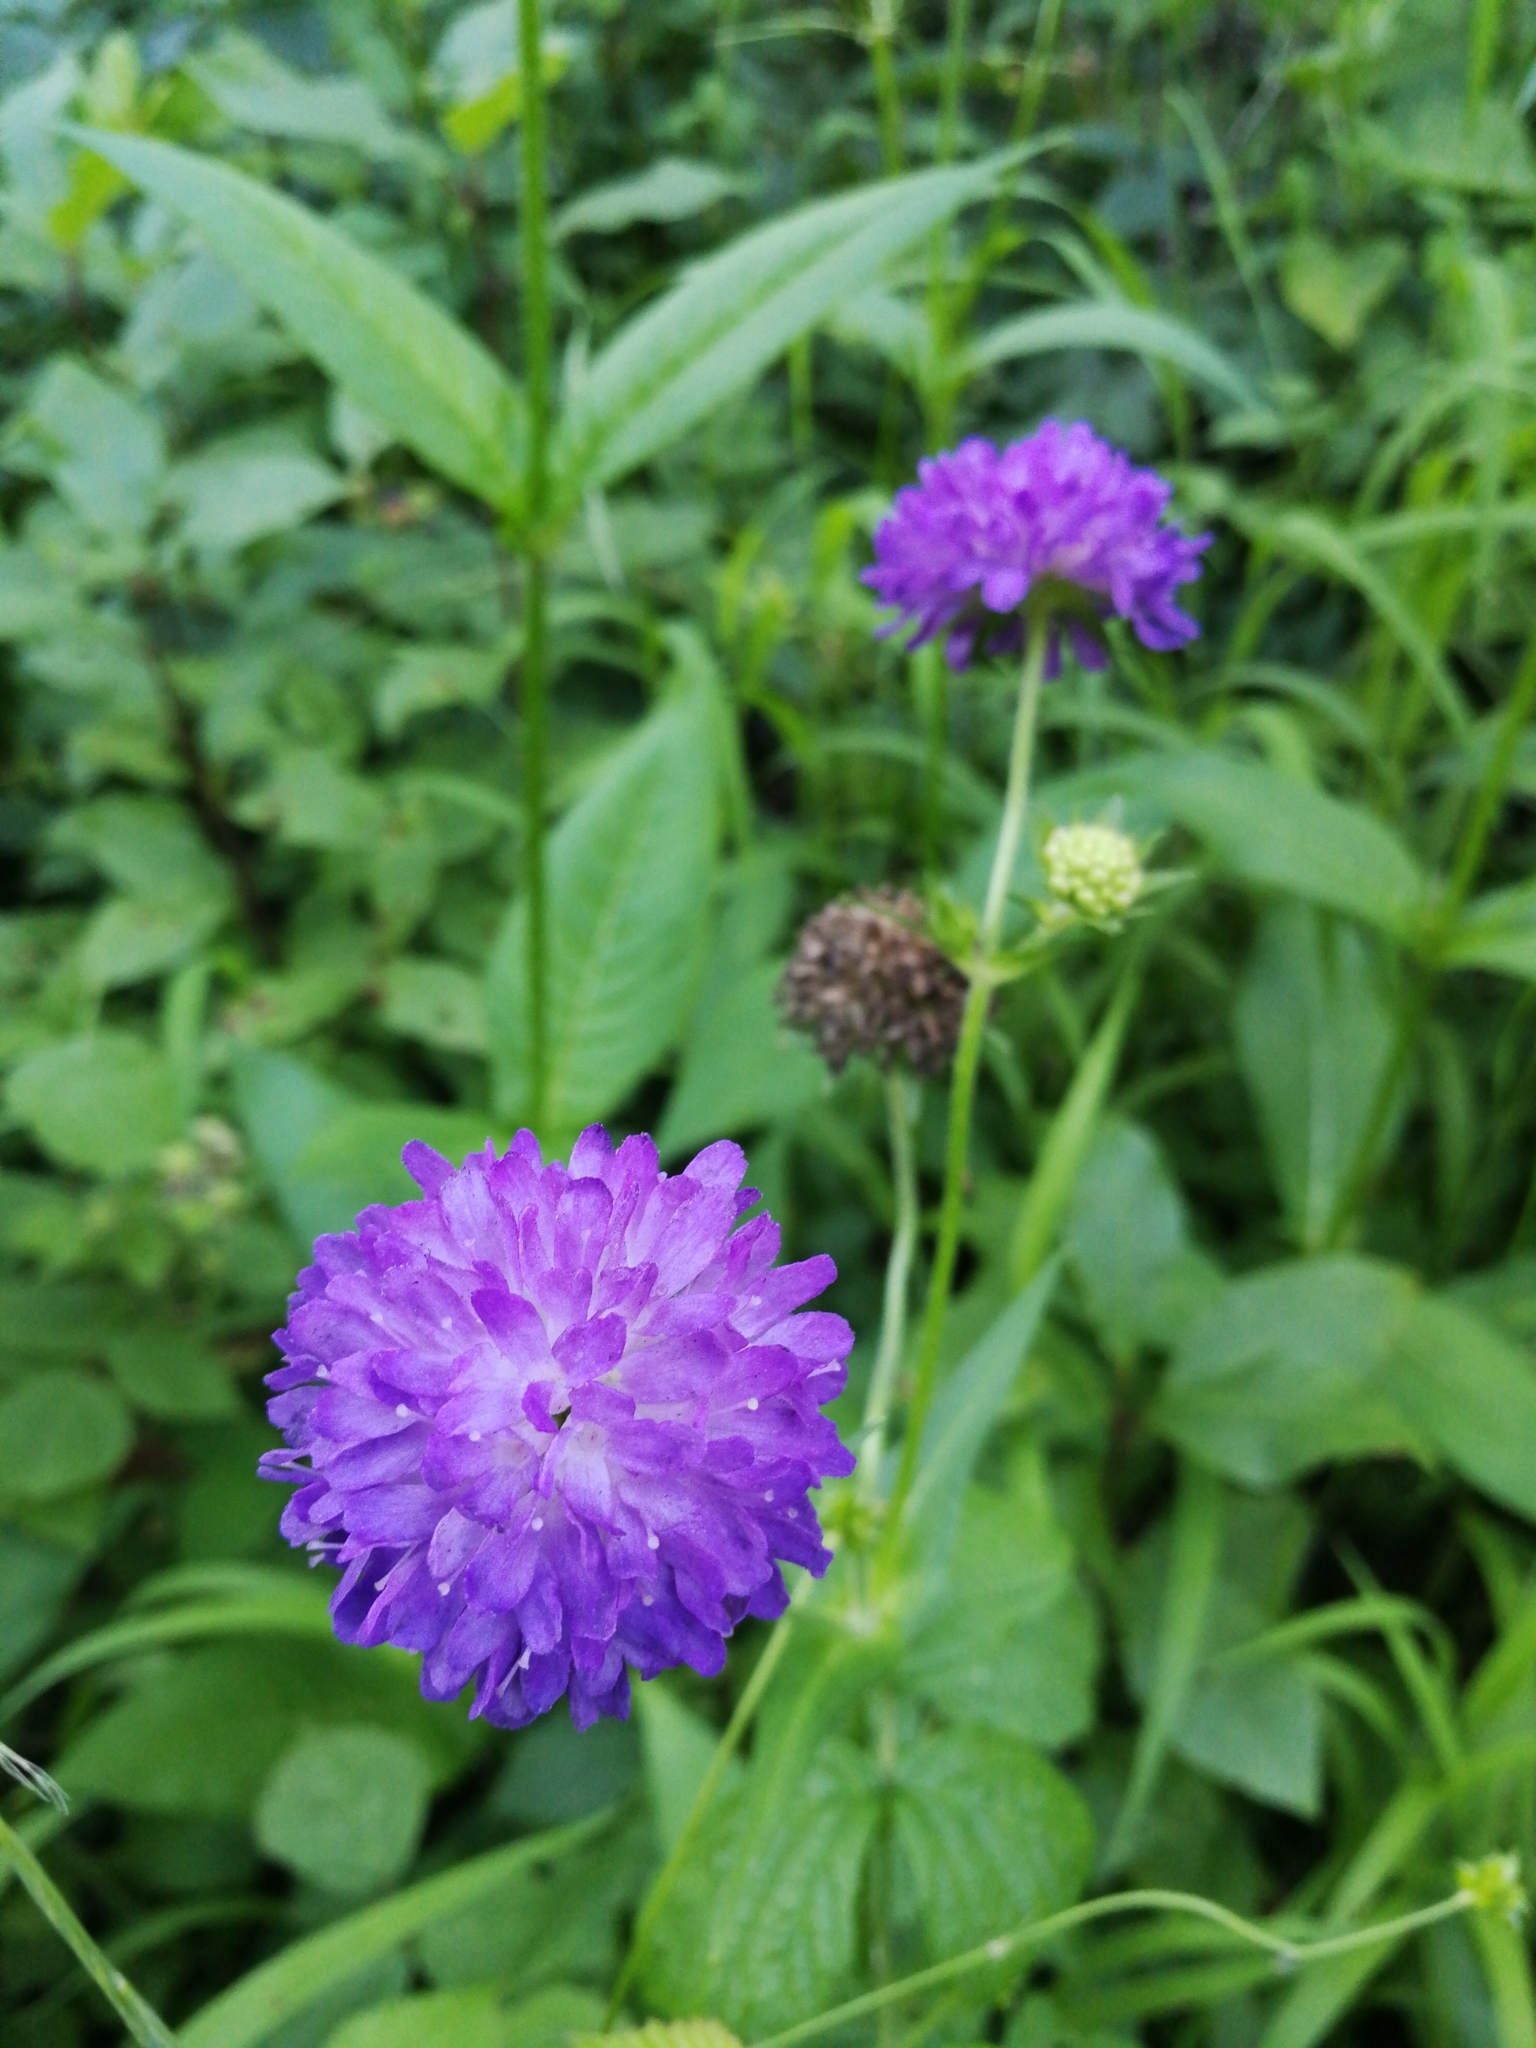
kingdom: Plantae
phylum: Tracheophyta
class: Magnoliopsida
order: Dipsacales
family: Caprifoliaceae
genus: Knautia
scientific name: Knautia dipsacifolia
